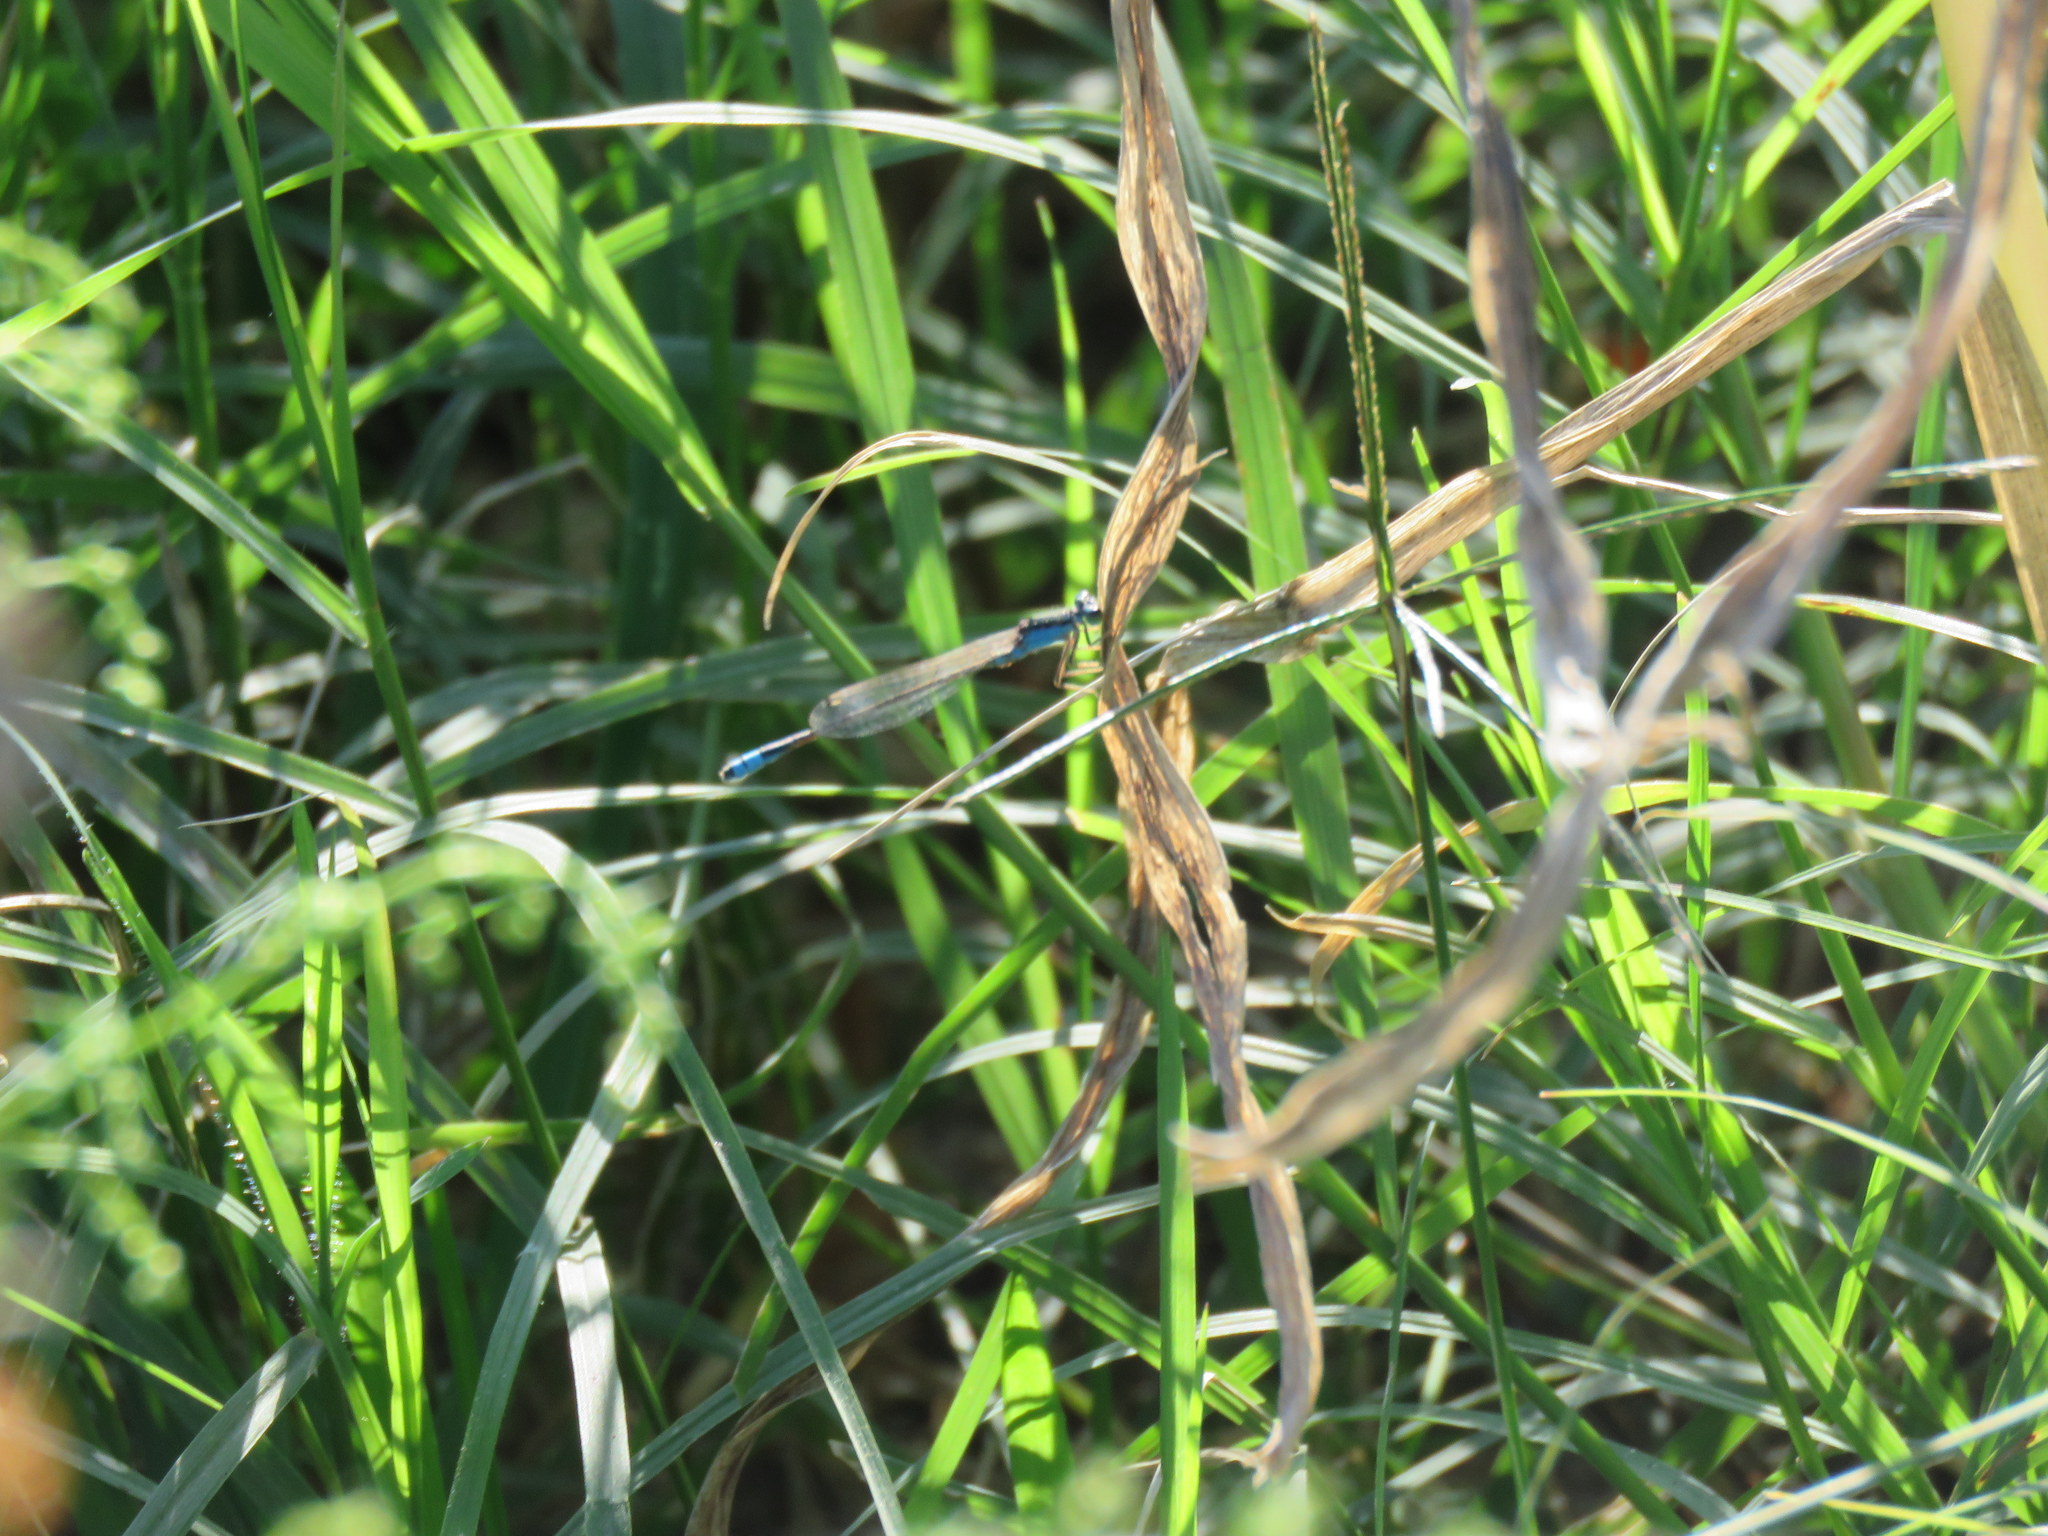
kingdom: Animalia
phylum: Arthropoda
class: Insecta
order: Odonata
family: Coenagrionidae
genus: Ischnura
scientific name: Ischnura fluviatilis
